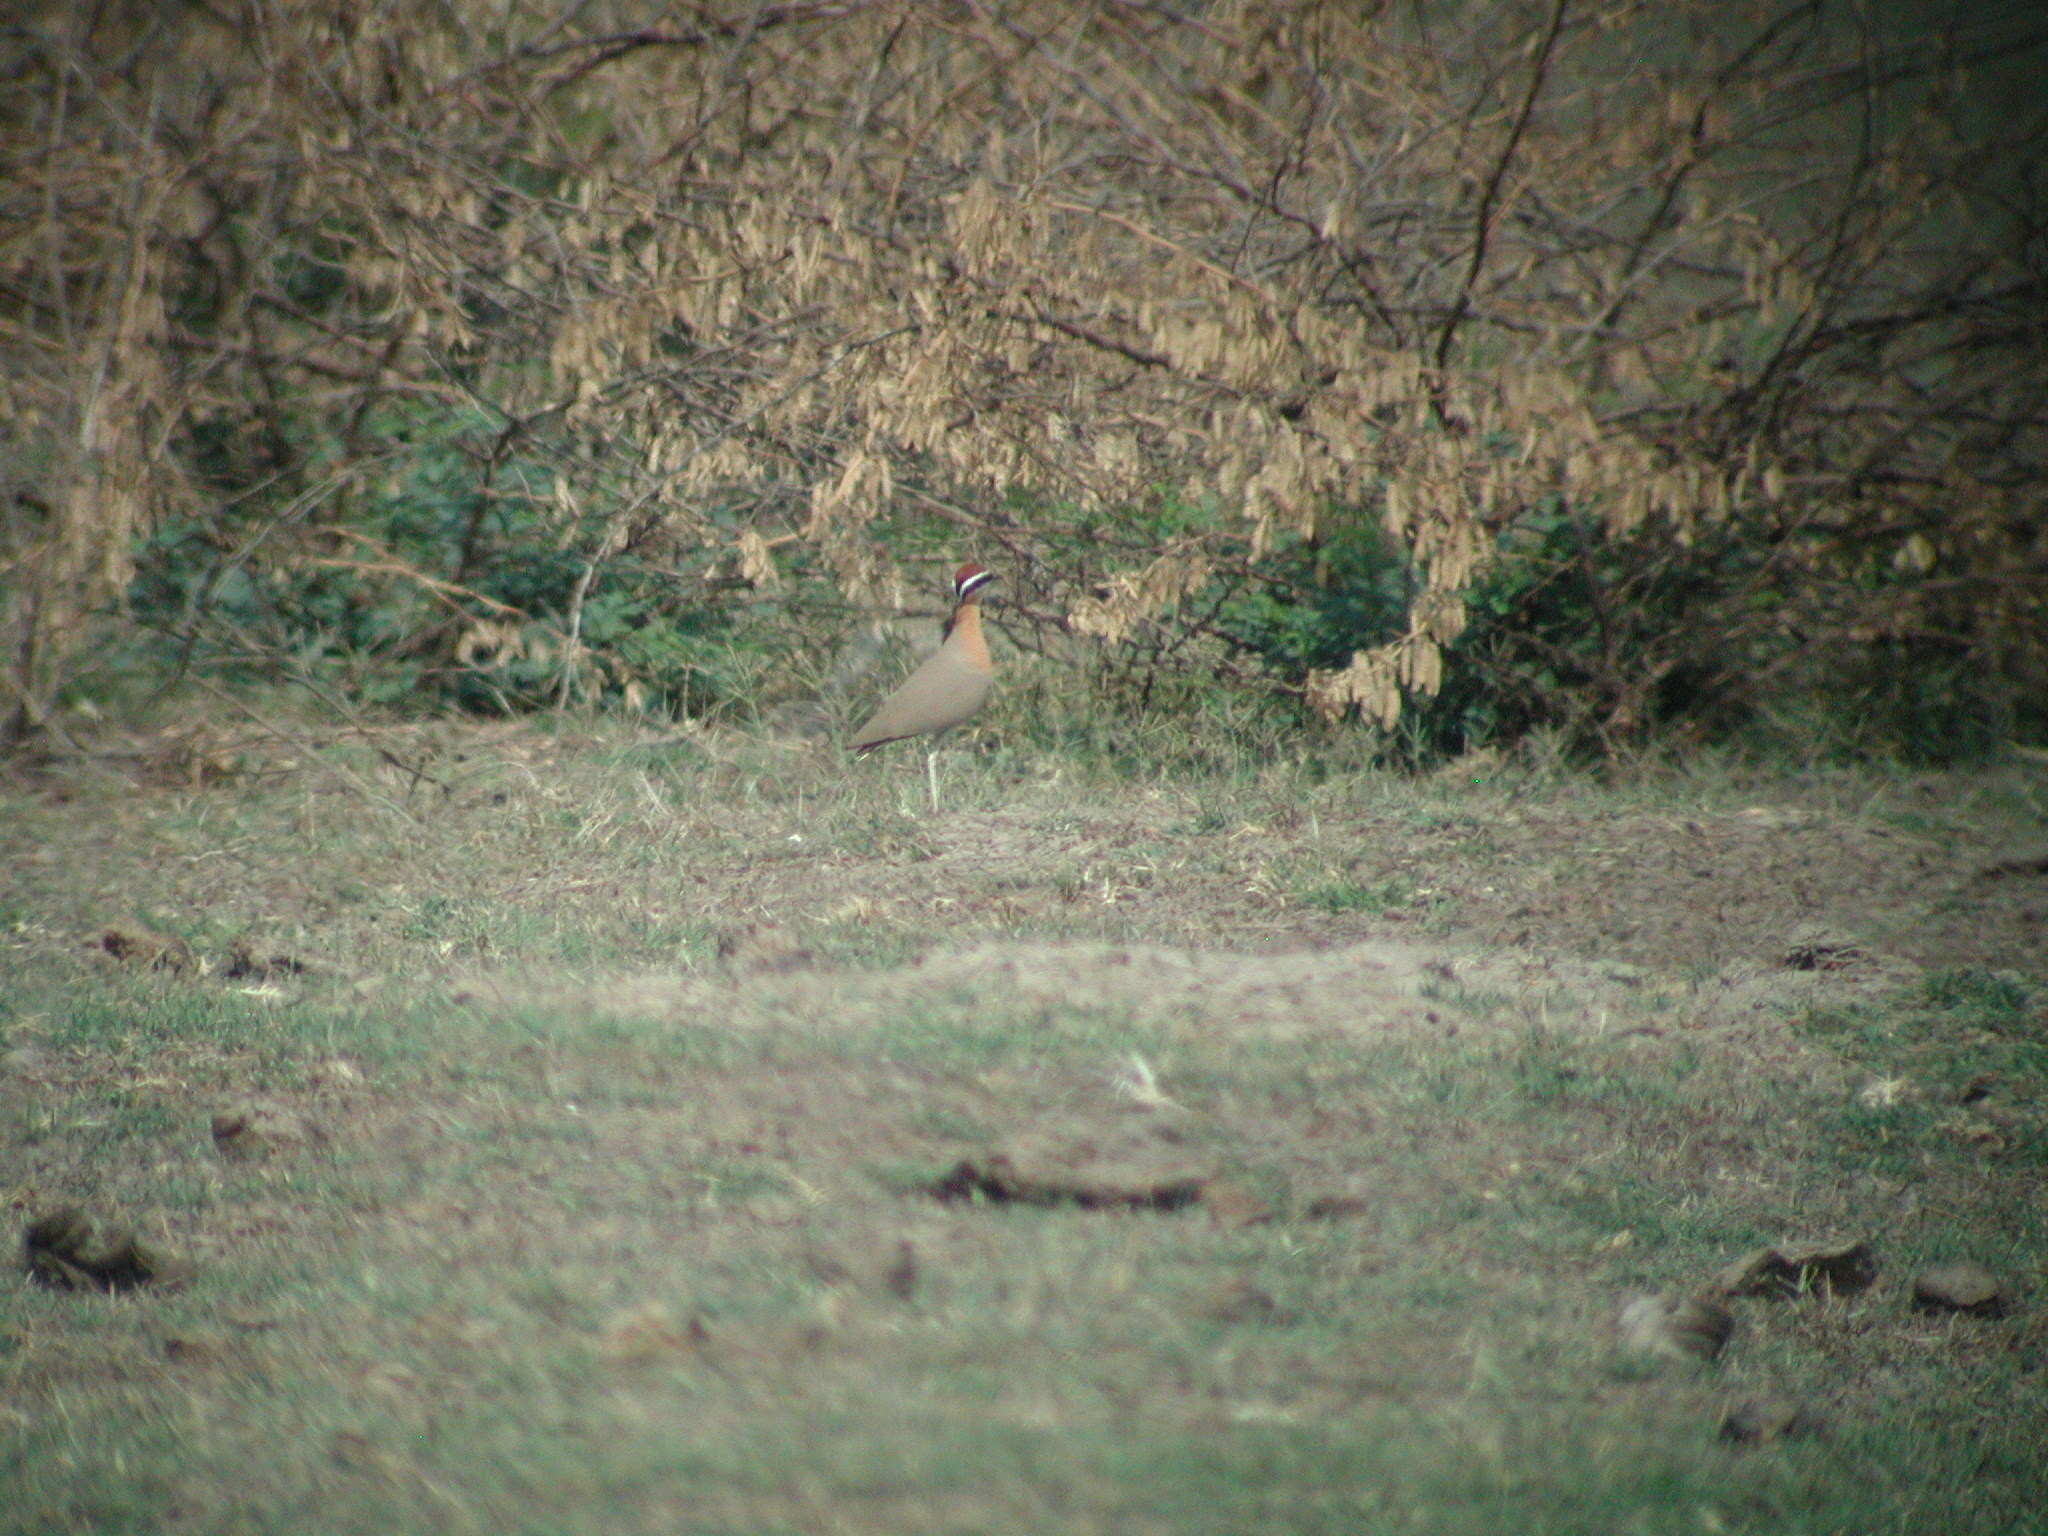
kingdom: Animalia
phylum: Chordata
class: Aves
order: Charadriiformes
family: Glareolidae
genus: Cursorius
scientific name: Cursorius coromandelicus
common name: Indian courser
